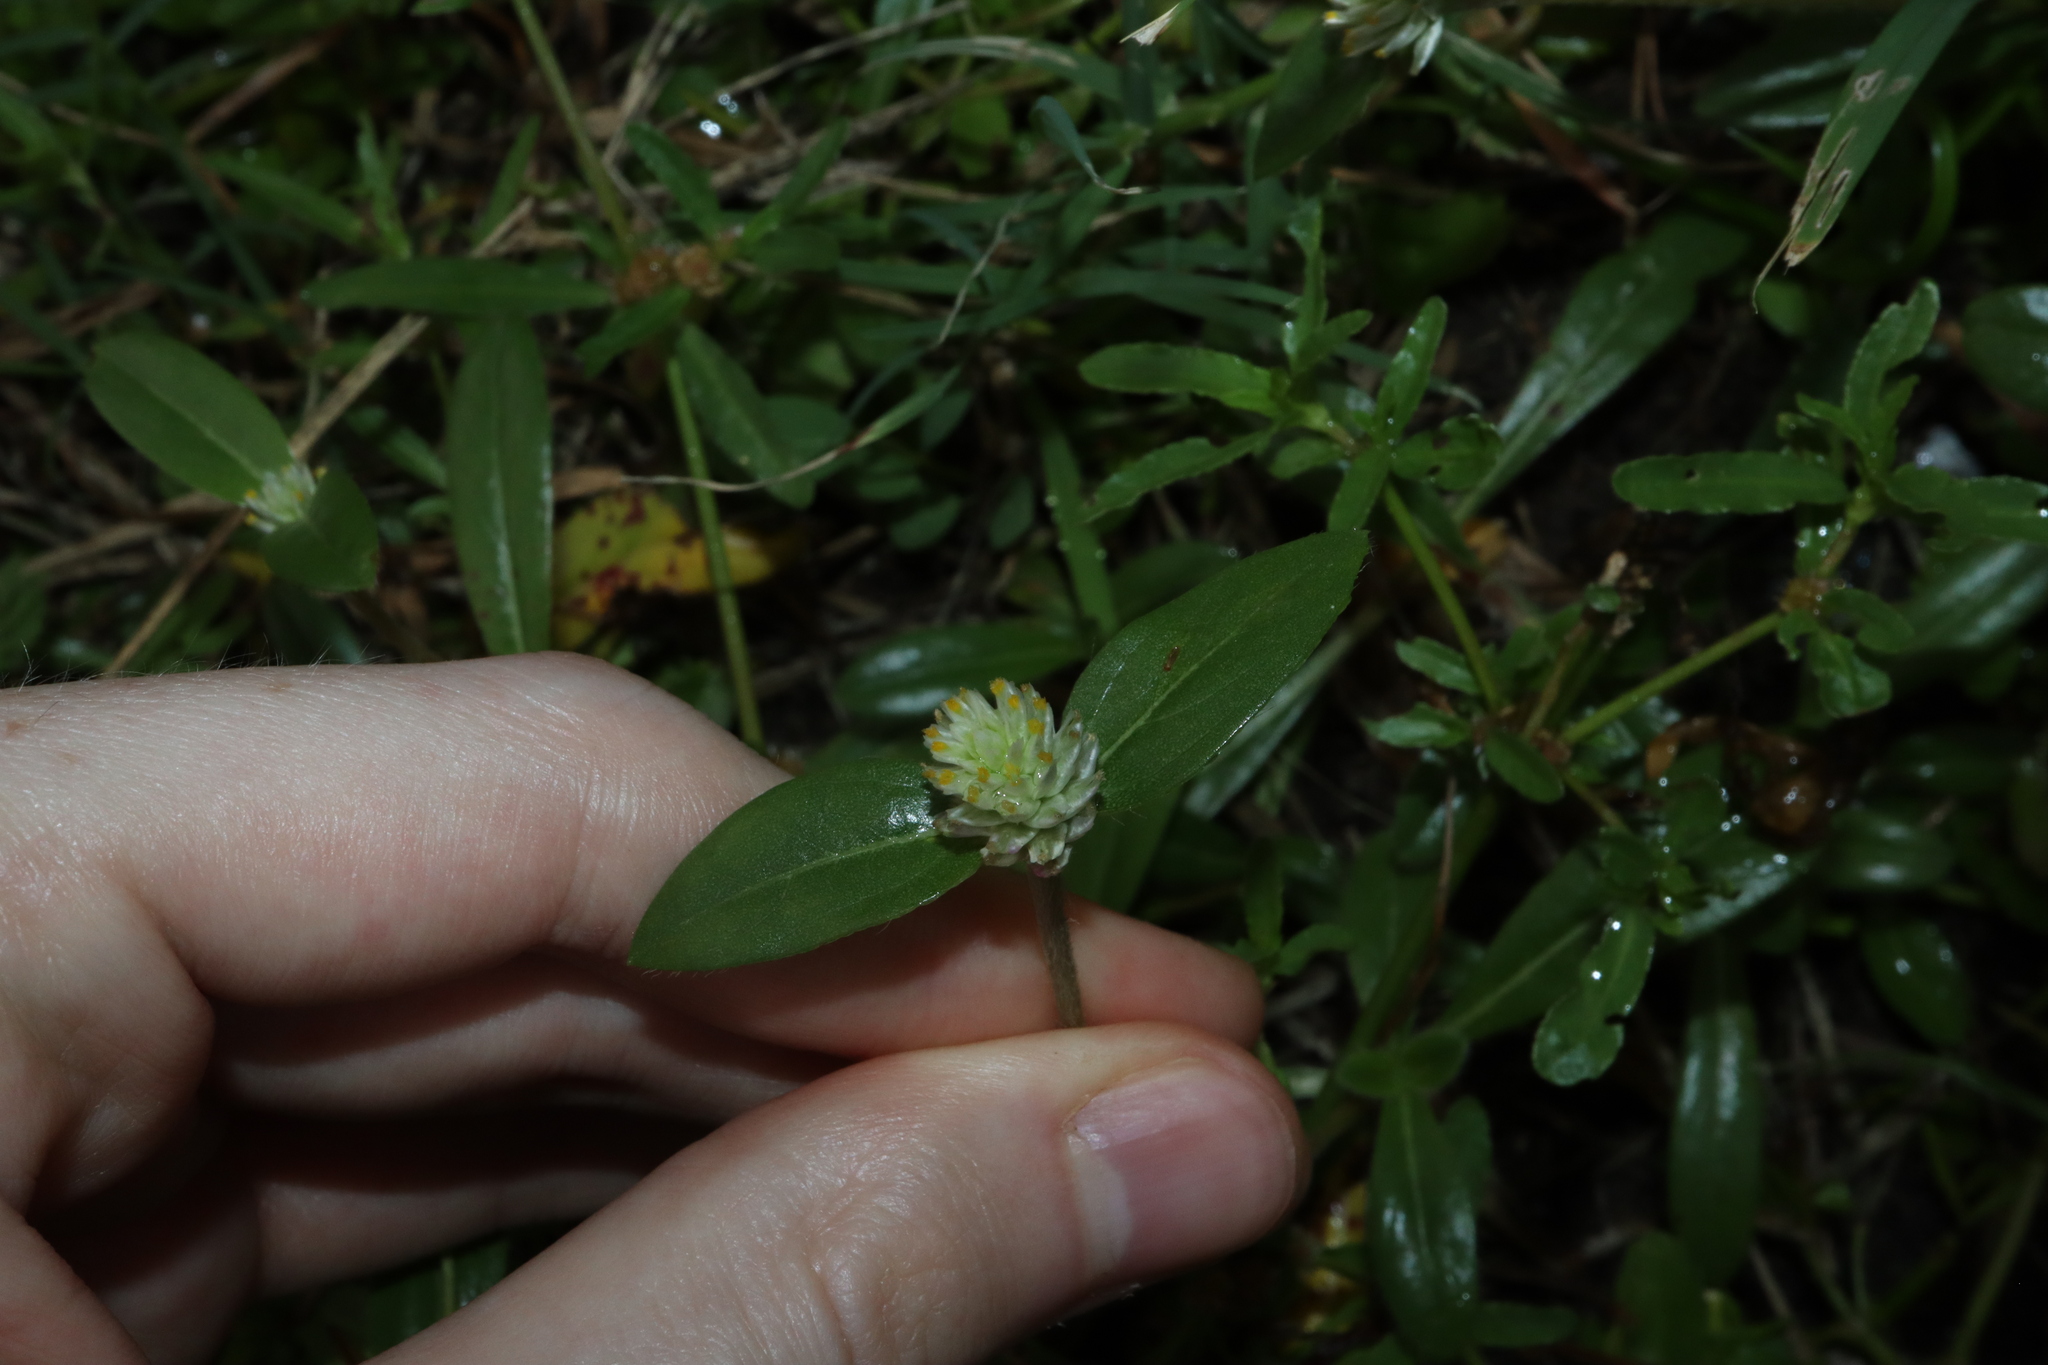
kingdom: Plantae
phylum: Tracheophyta
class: Magnoliopsida
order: Caryophyllales
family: Amaranthaceae
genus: Gomphrena
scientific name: Gomphrena celosioides
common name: Gomphrena-weed
